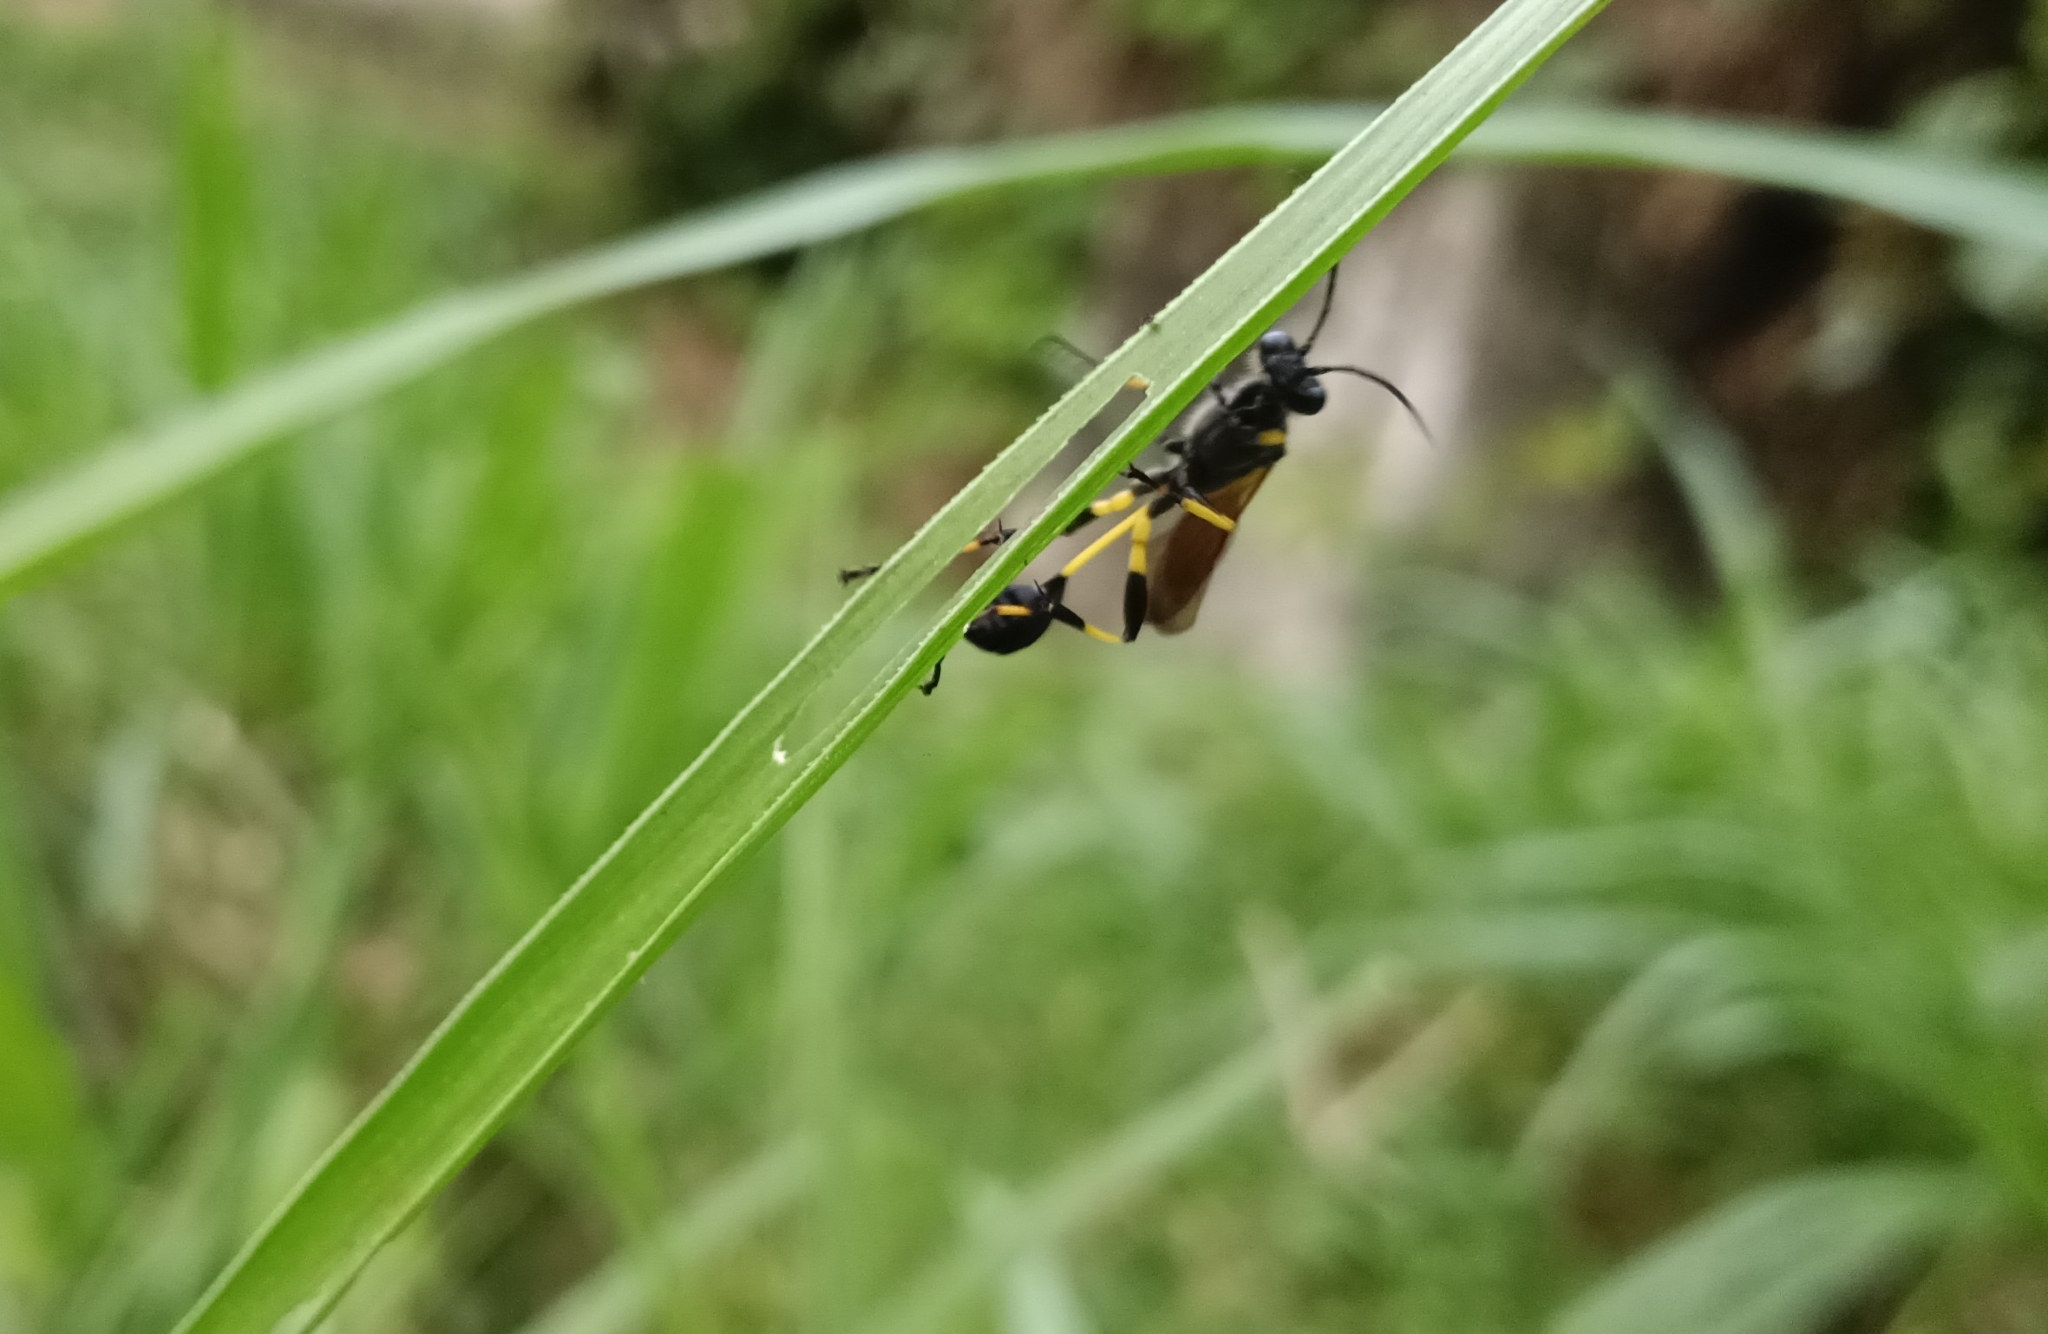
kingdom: Animalia
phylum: Arthropoda
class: Insecta
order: Hymenoptera
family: Sphecidae
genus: Sceliphron
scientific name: Sceliphron madraspatanum
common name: Mud dauber
